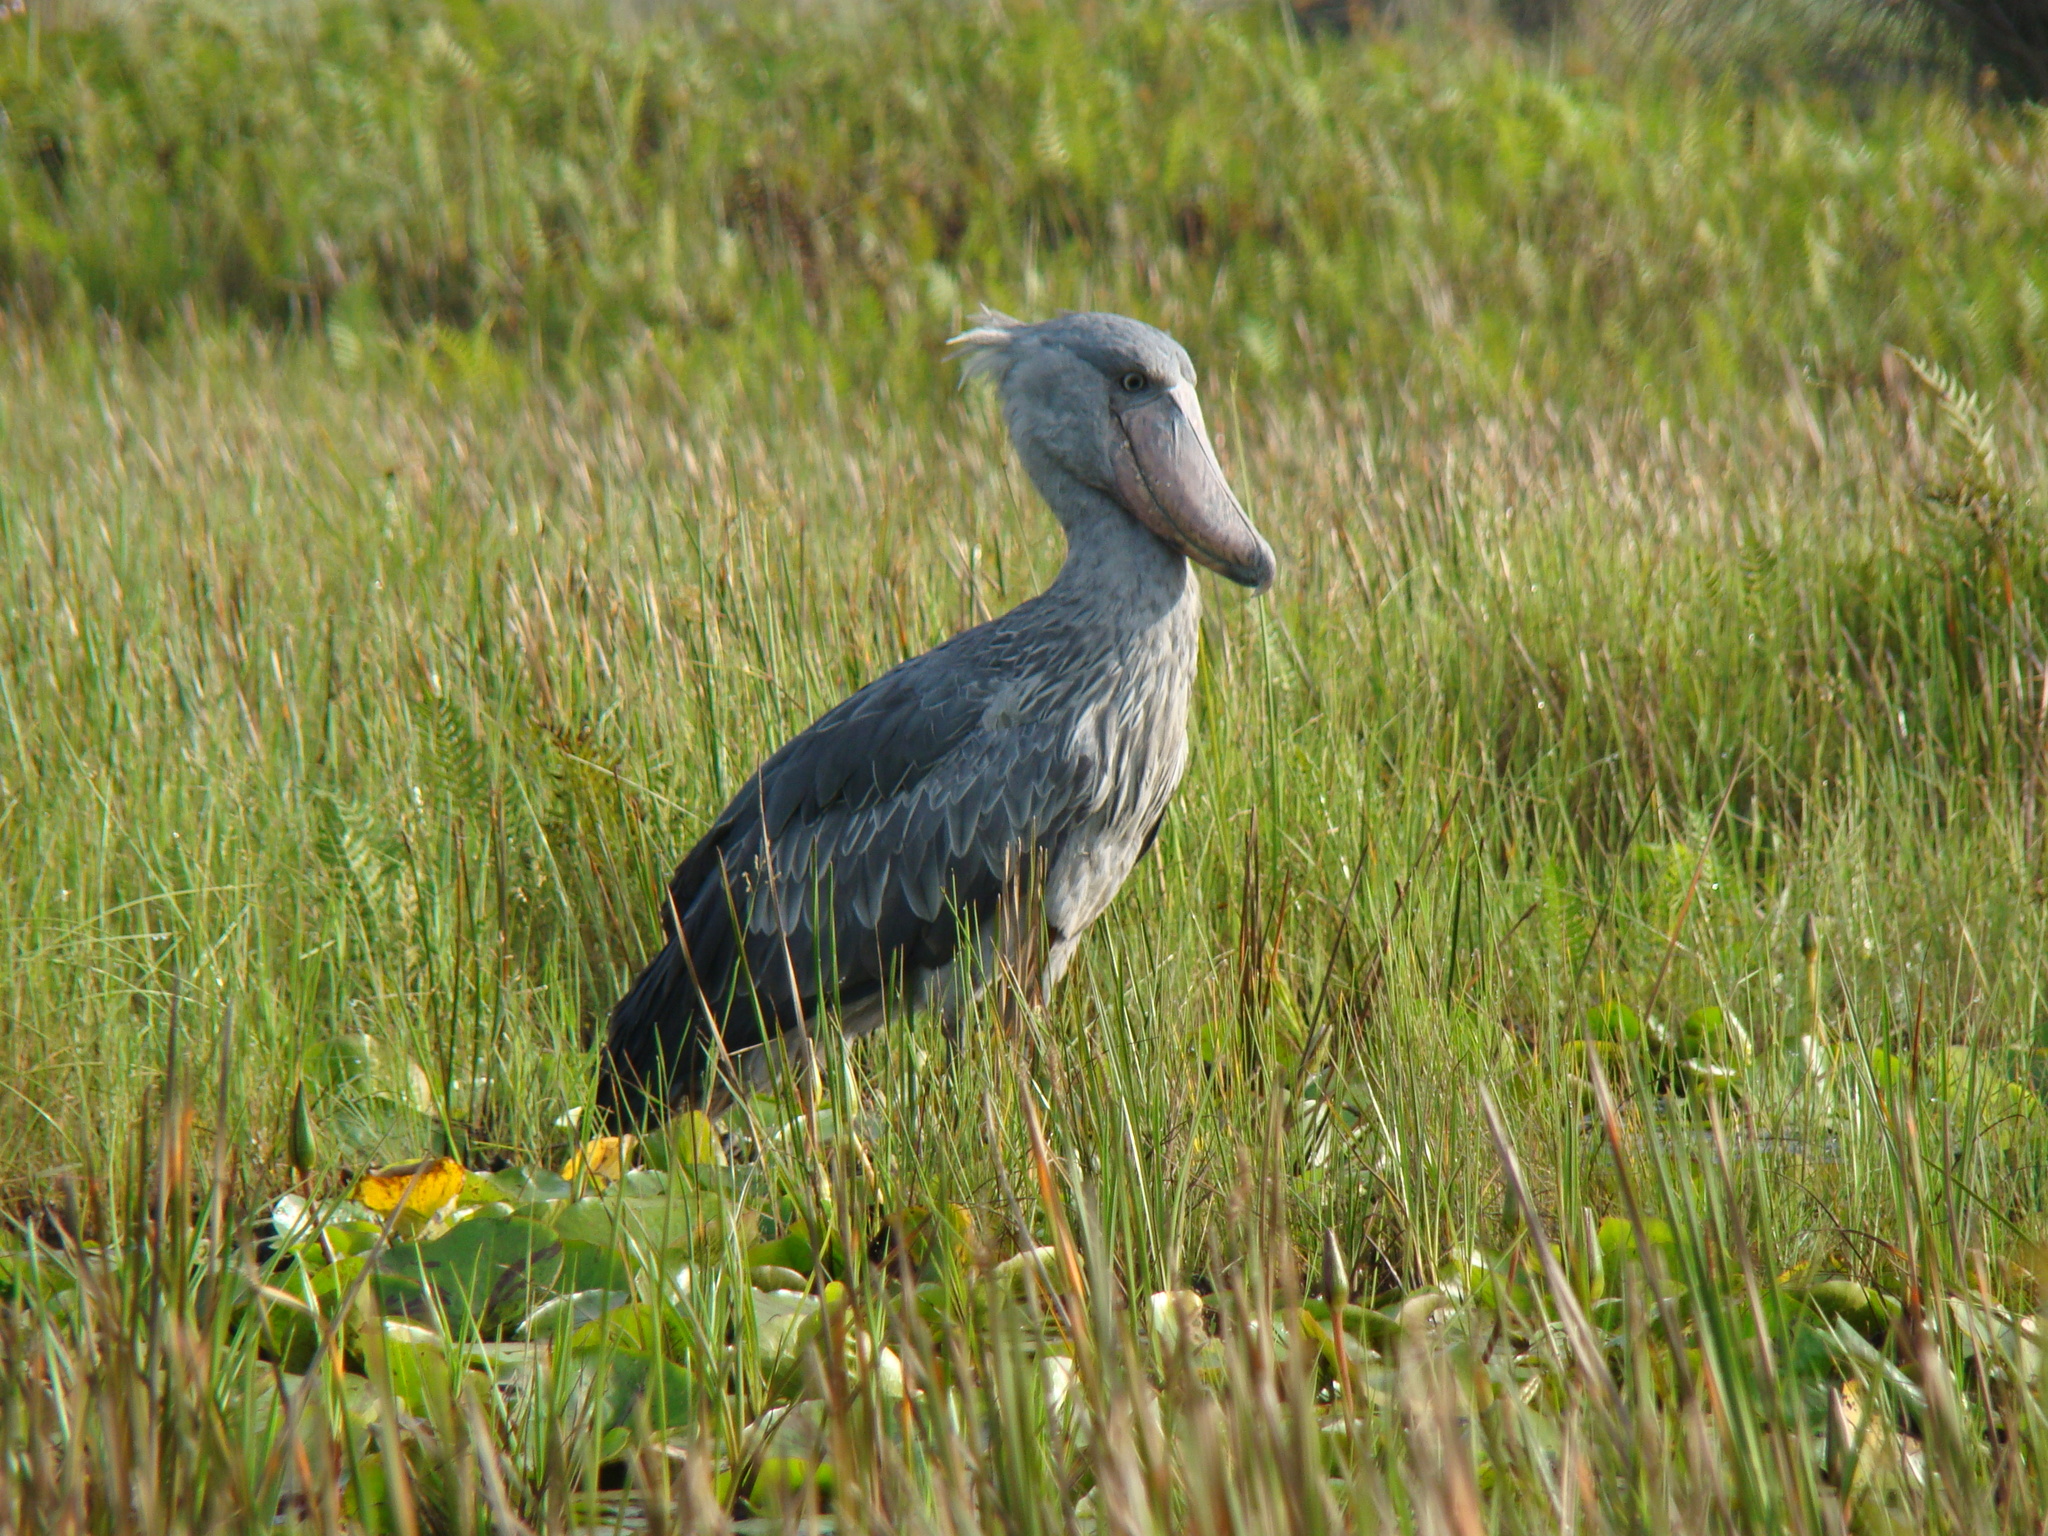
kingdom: Animalia
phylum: Chordata
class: Aves
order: Pelecaniformes
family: Balaenicipitidae
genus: Balaeniceps
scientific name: Balaeniceps rex
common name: Shoebill
